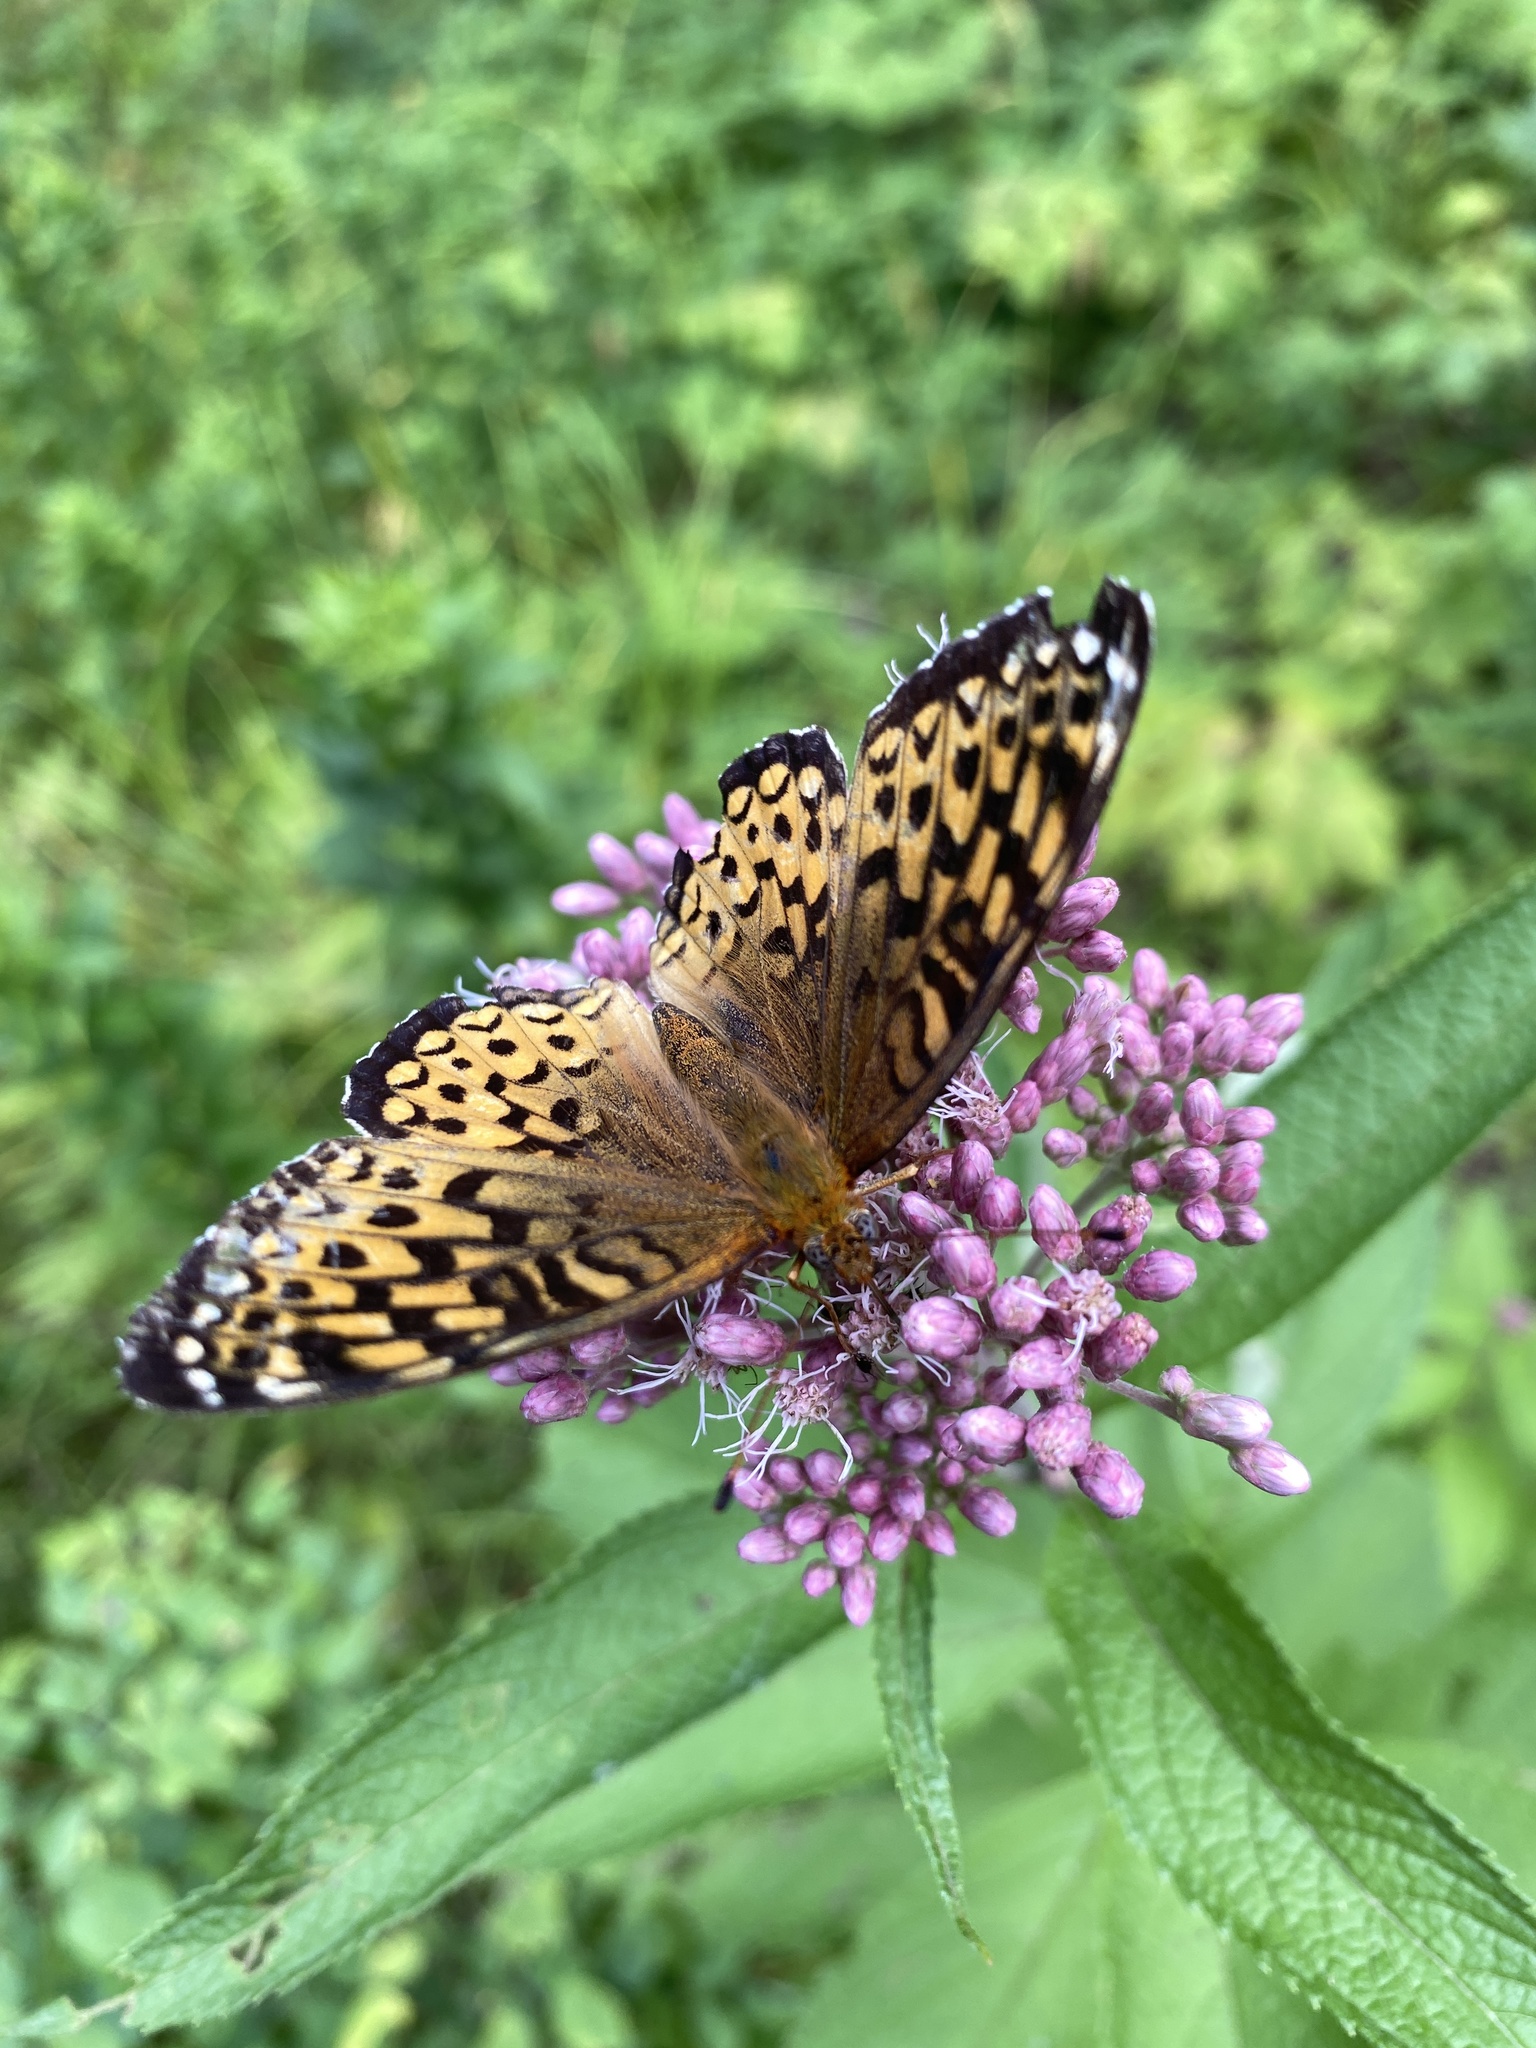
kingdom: Animalia
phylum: Arthropoda
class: Insecta
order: Lepidoptera
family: Nymphalidae
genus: Speyeria
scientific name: Speyeria atlantis
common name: Atlantis fritillary
